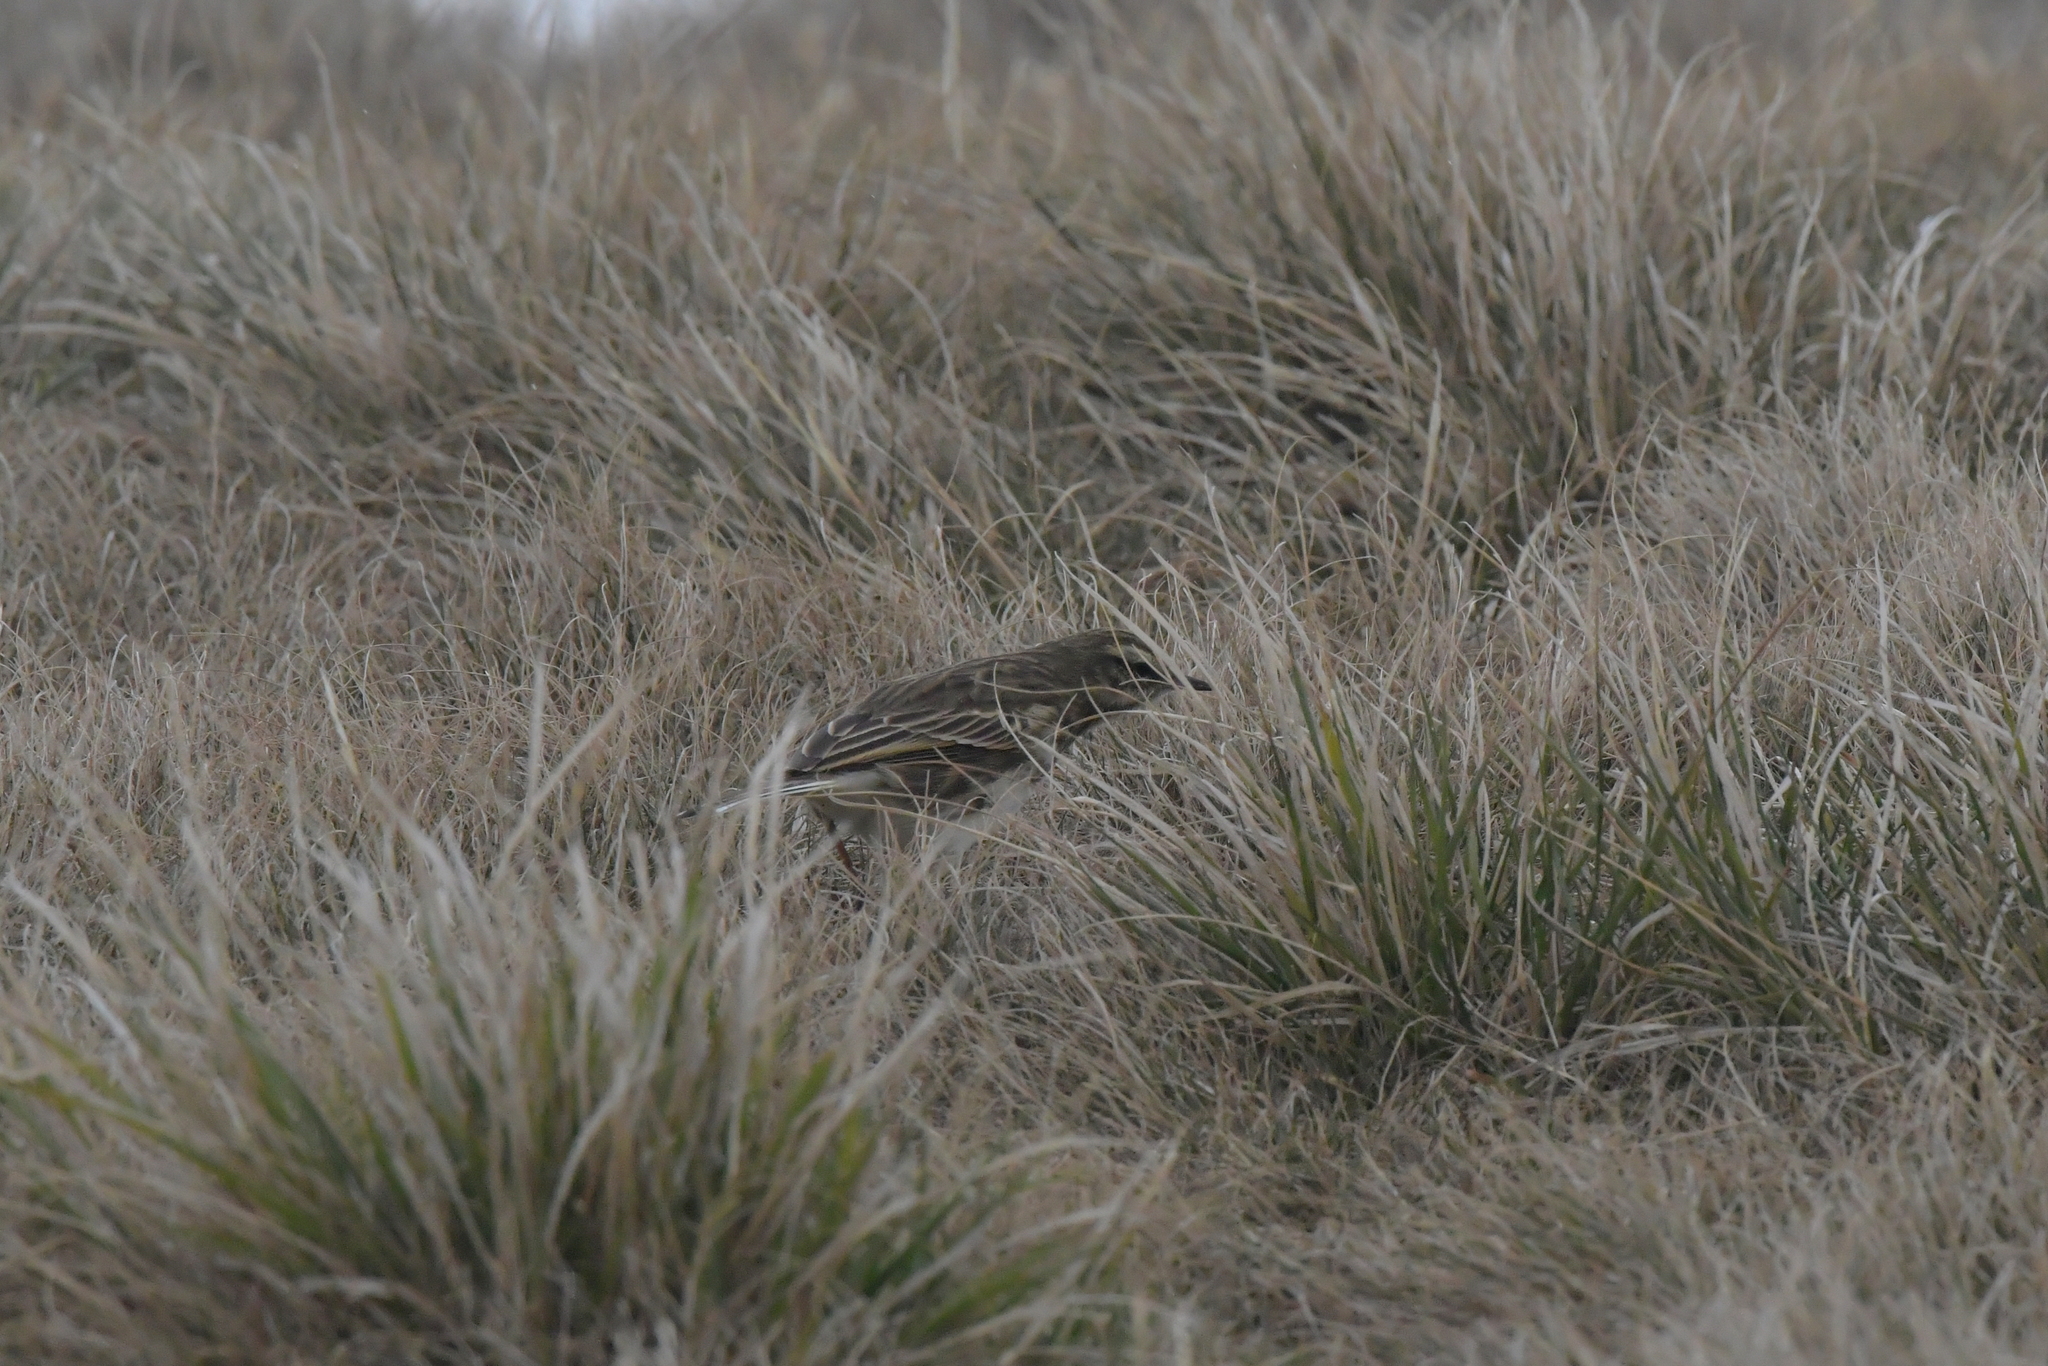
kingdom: Animalia
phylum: Chordata
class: Aves
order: Passeriformes
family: Motacillidae
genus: Anthus
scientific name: Anthus novaeseelandiae
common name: New zealand pipit
